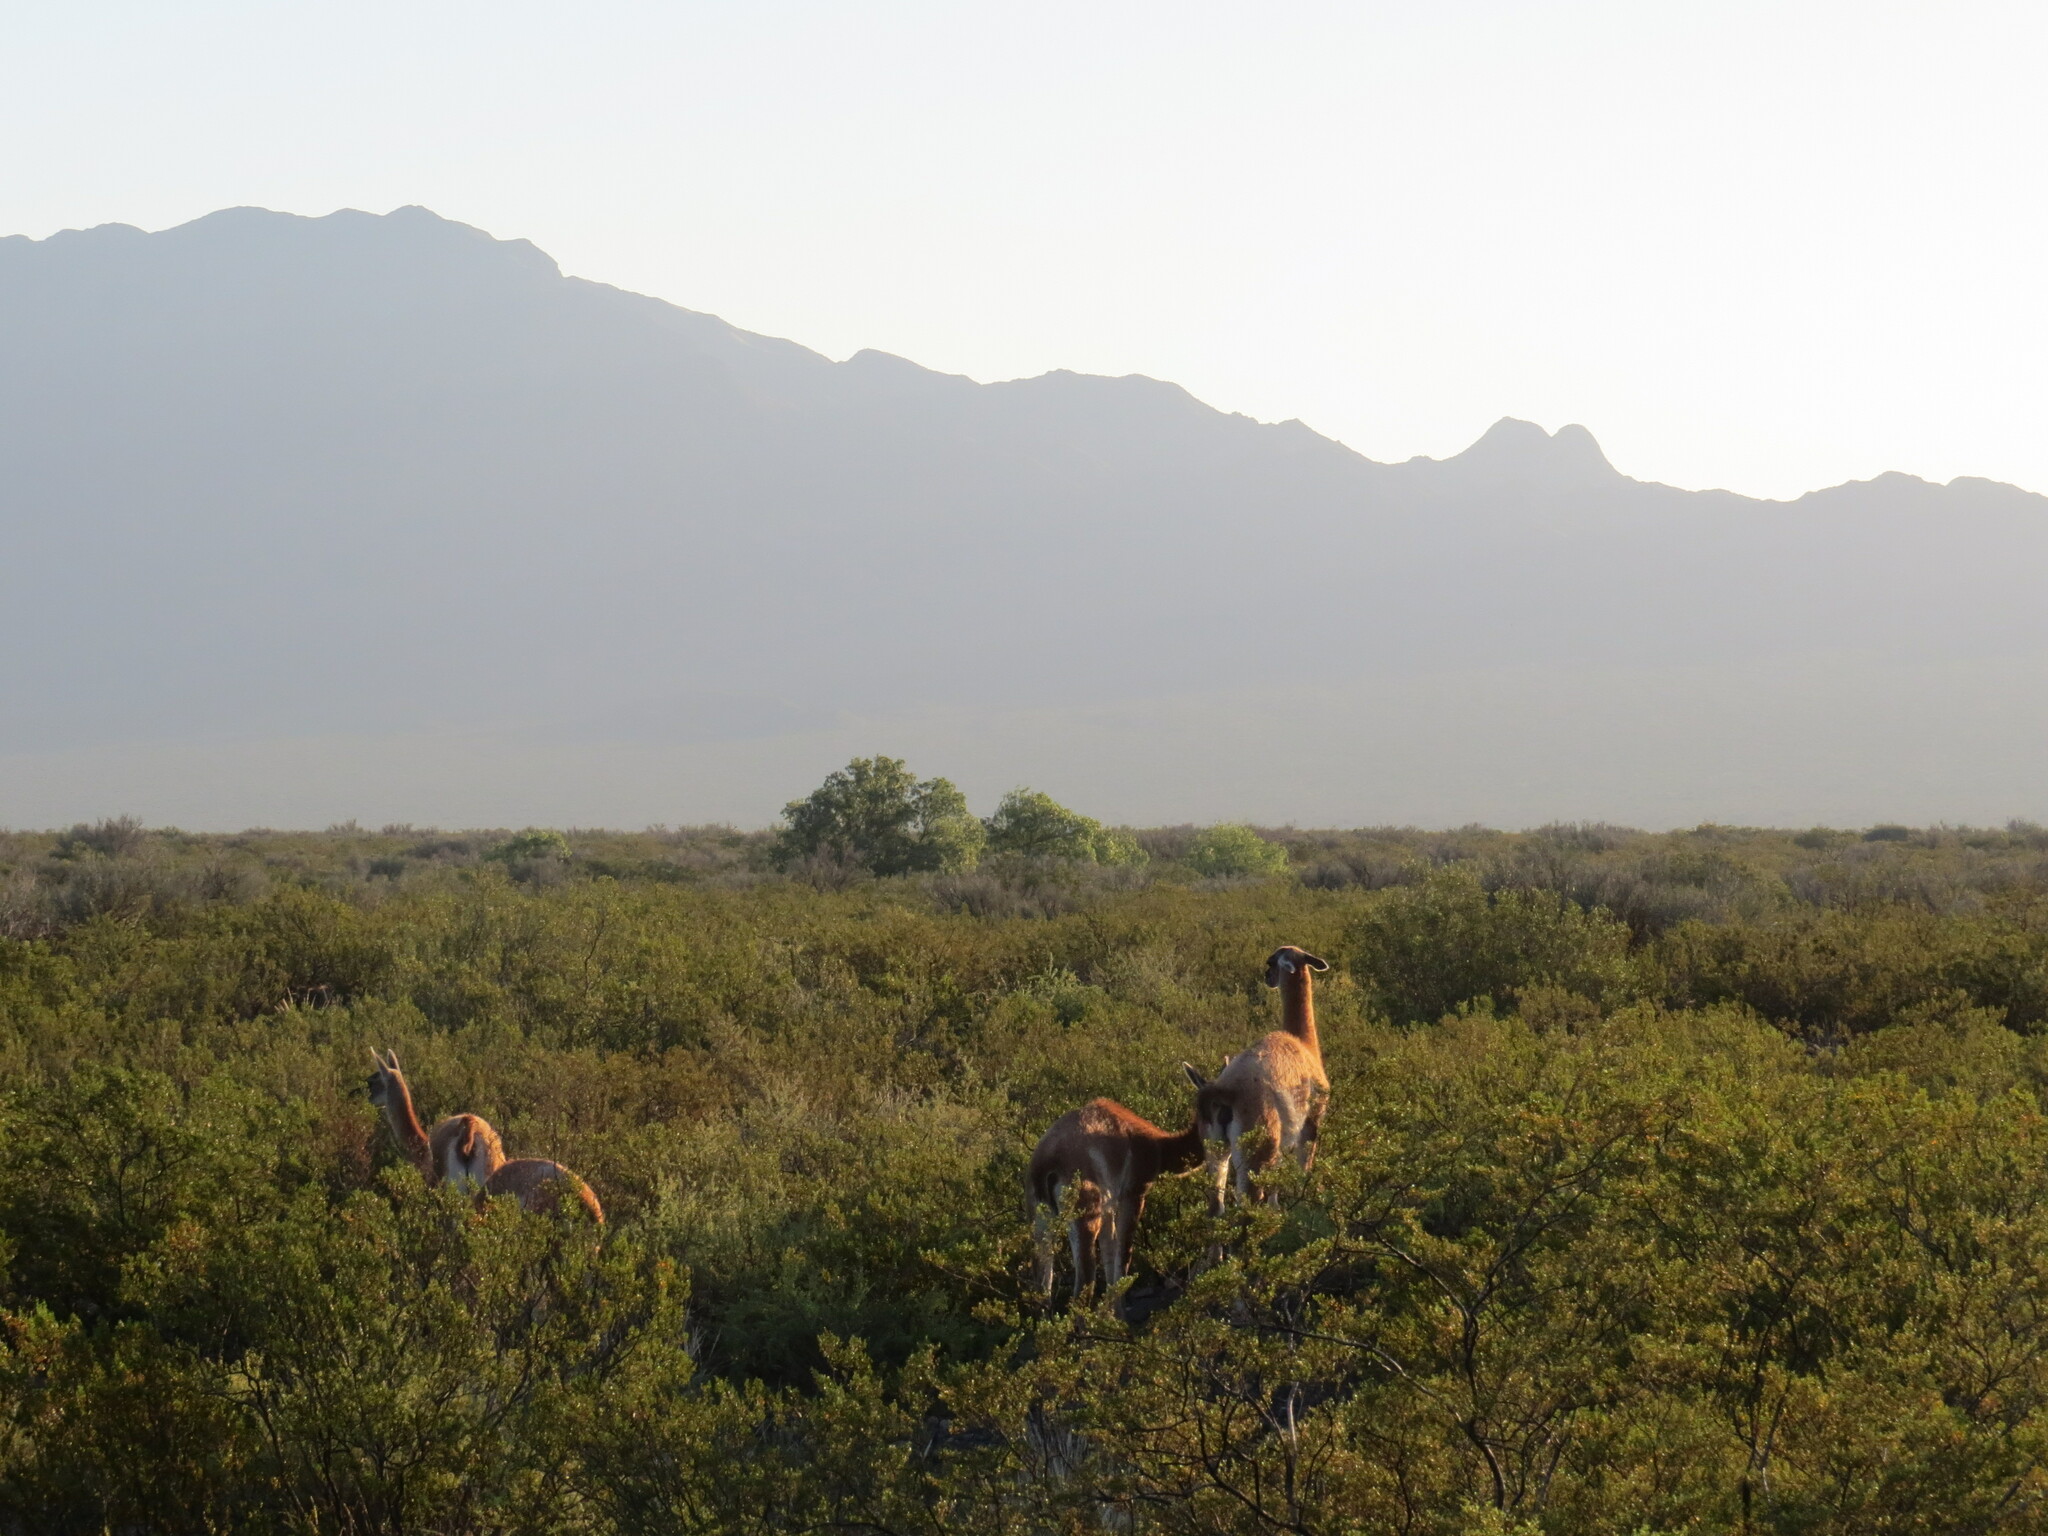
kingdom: Animalia
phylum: Chordata
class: Mammalia
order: Artiodactyla
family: Camelidae
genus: Lama
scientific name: Lama glama
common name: Llama
